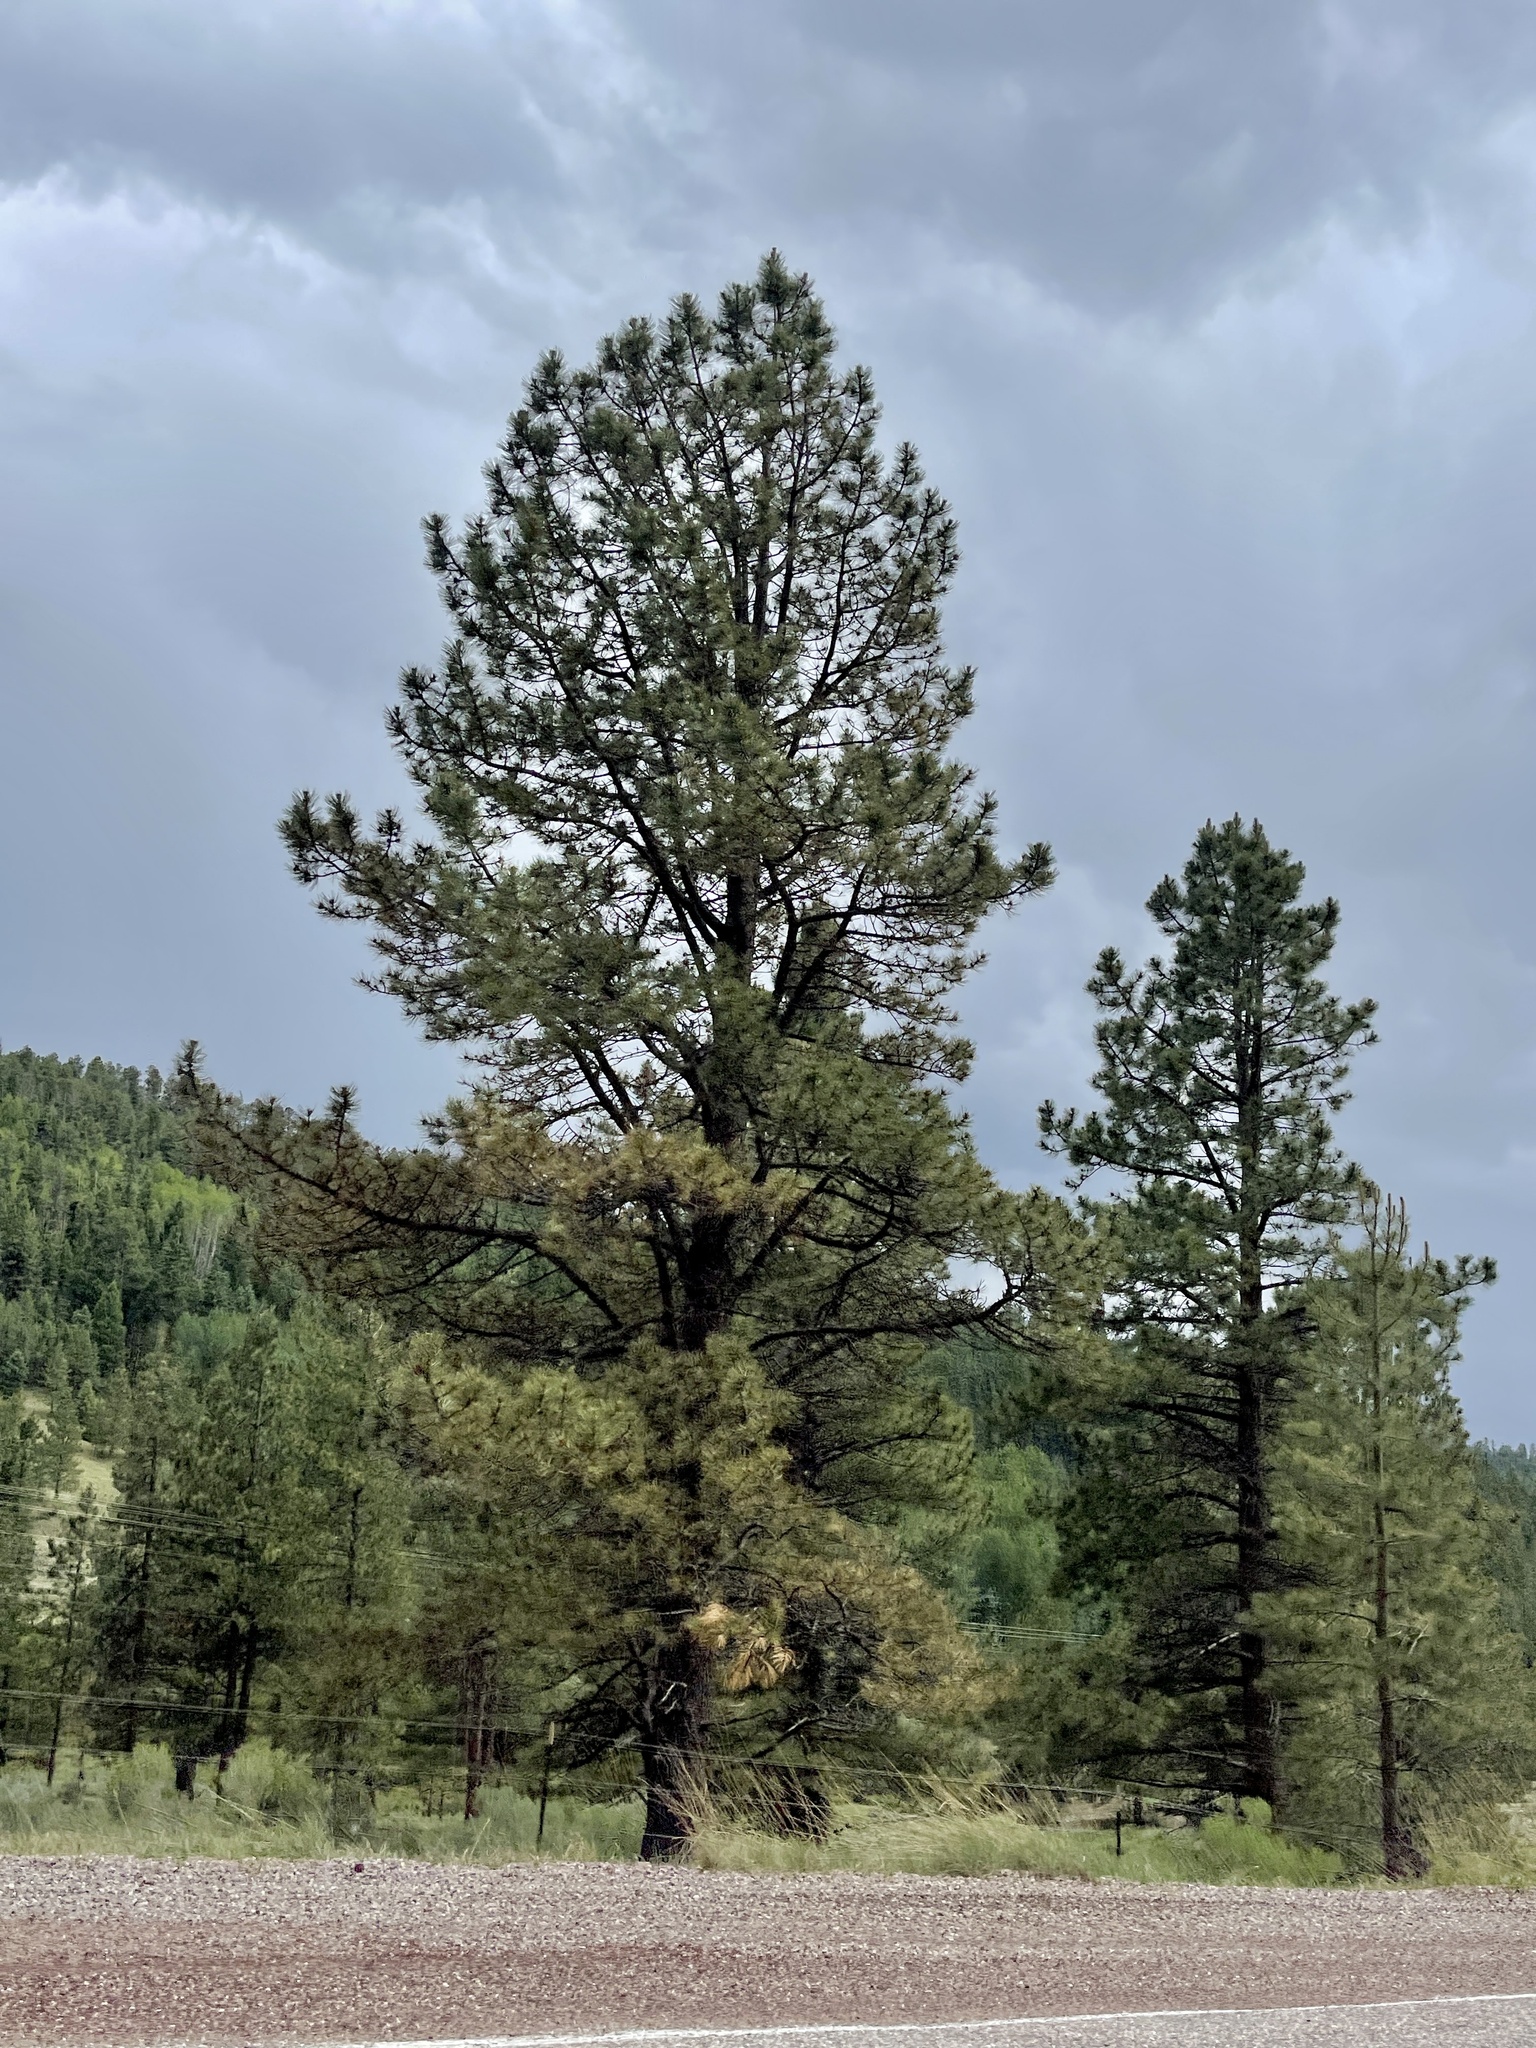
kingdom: Plantae
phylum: Tracheophyta
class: Pinopsida
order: Pinales
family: Pinaceae
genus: Pinus
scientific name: Pinus ponderosa
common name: Western yellow-pine
